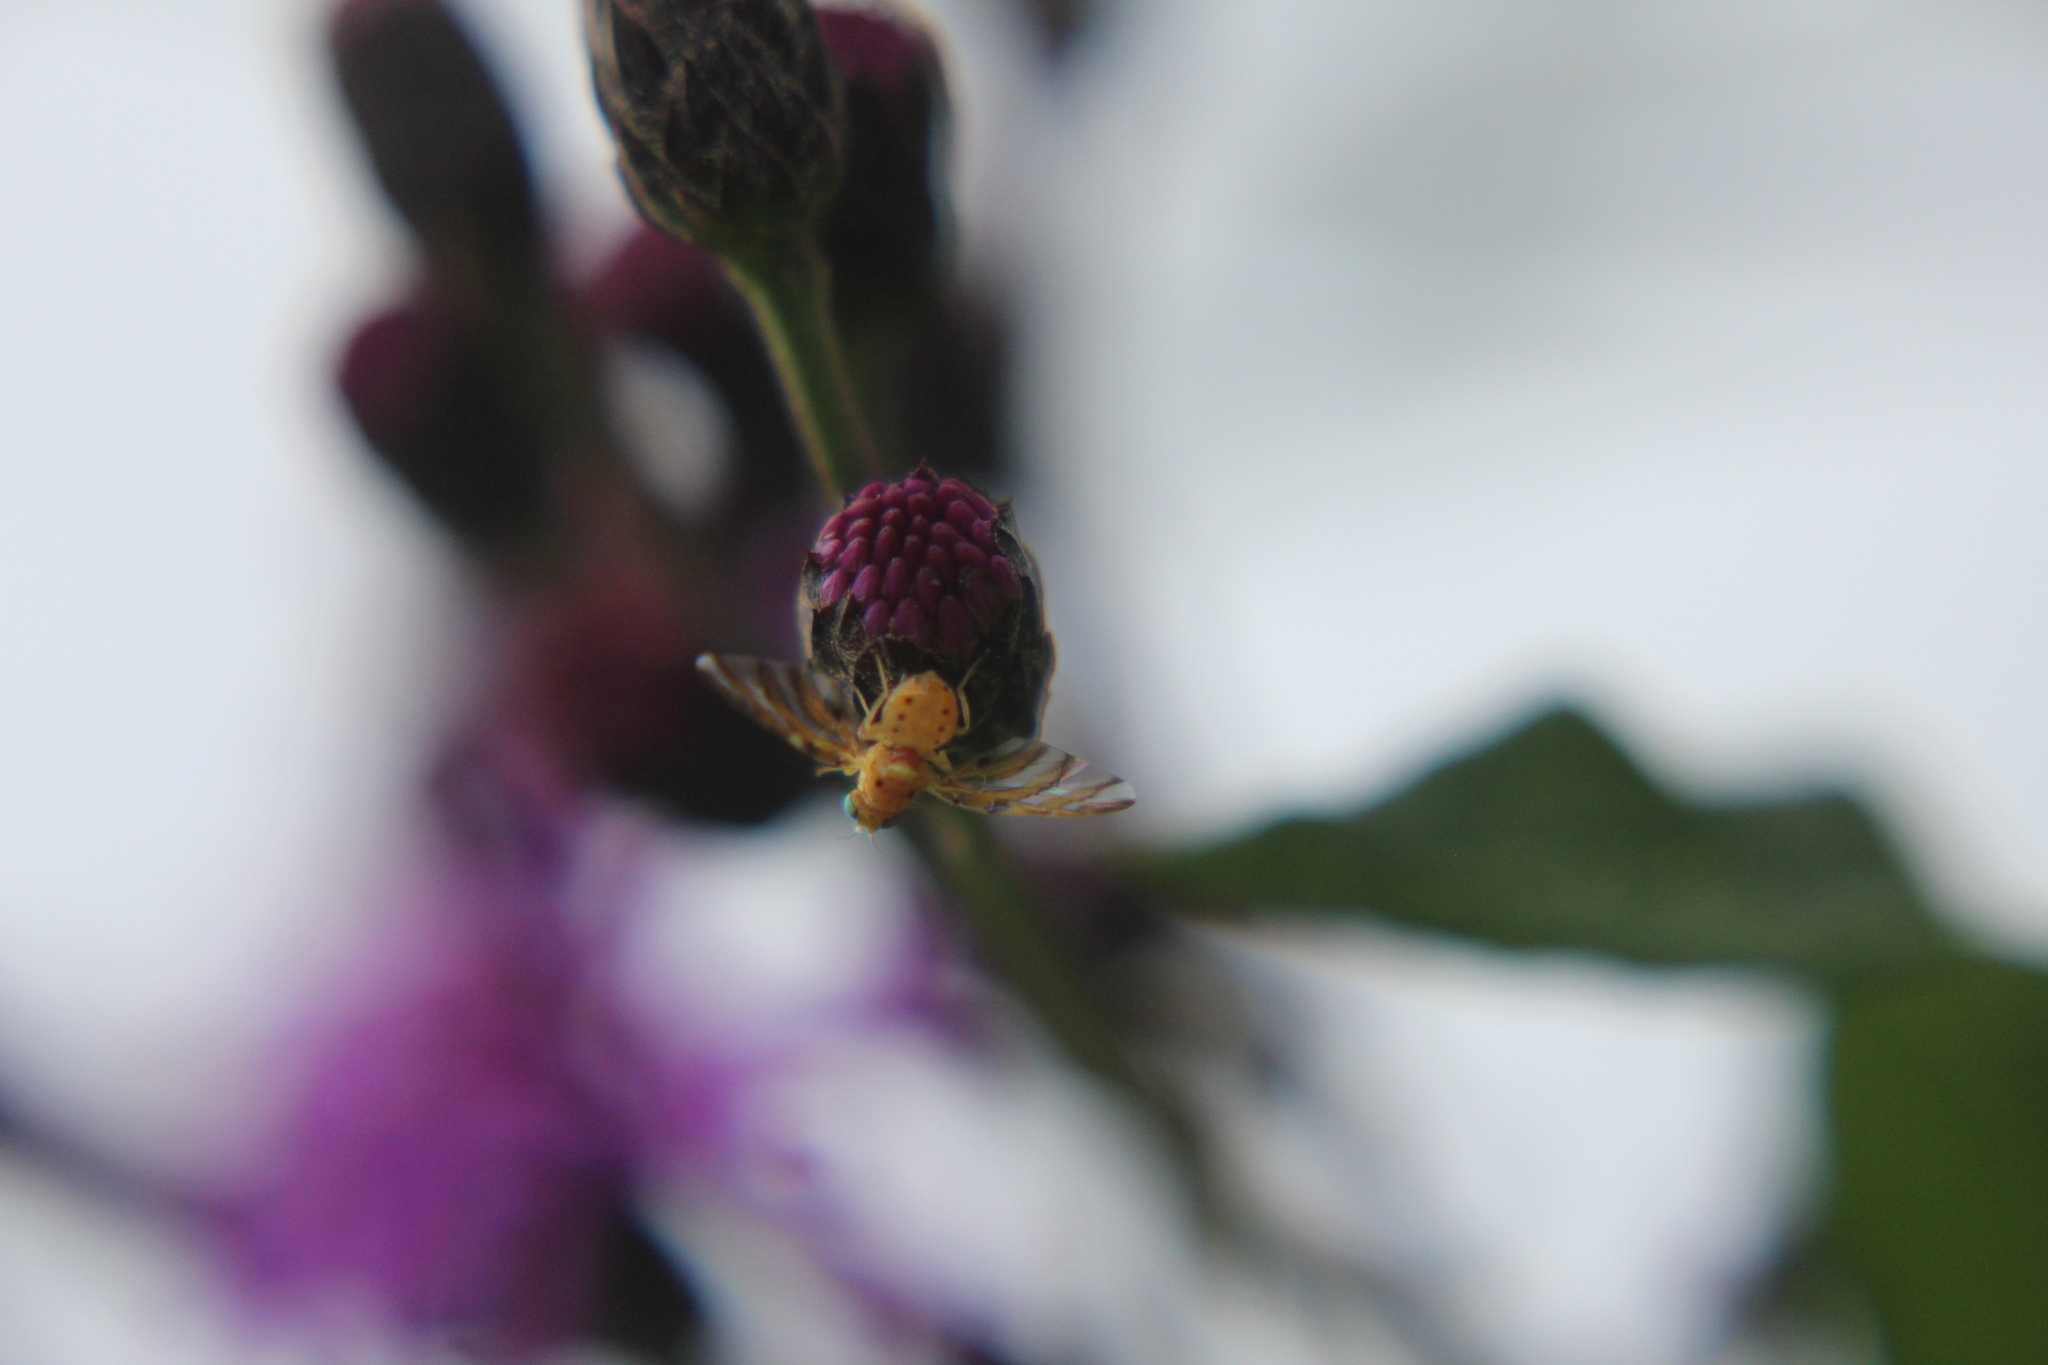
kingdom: Animalia
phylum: Arthropoda
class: Insecta
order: Diptera
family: Tephritidae
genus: Tomoplagia
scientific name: Tomoplagia obliqua
